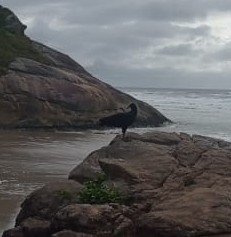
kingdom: Animalia
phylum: Chordata
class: Aves
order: Accipitriformes
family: Cathartidae
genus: Coragyps
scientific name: Coragyps atratus
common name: Black vulture
